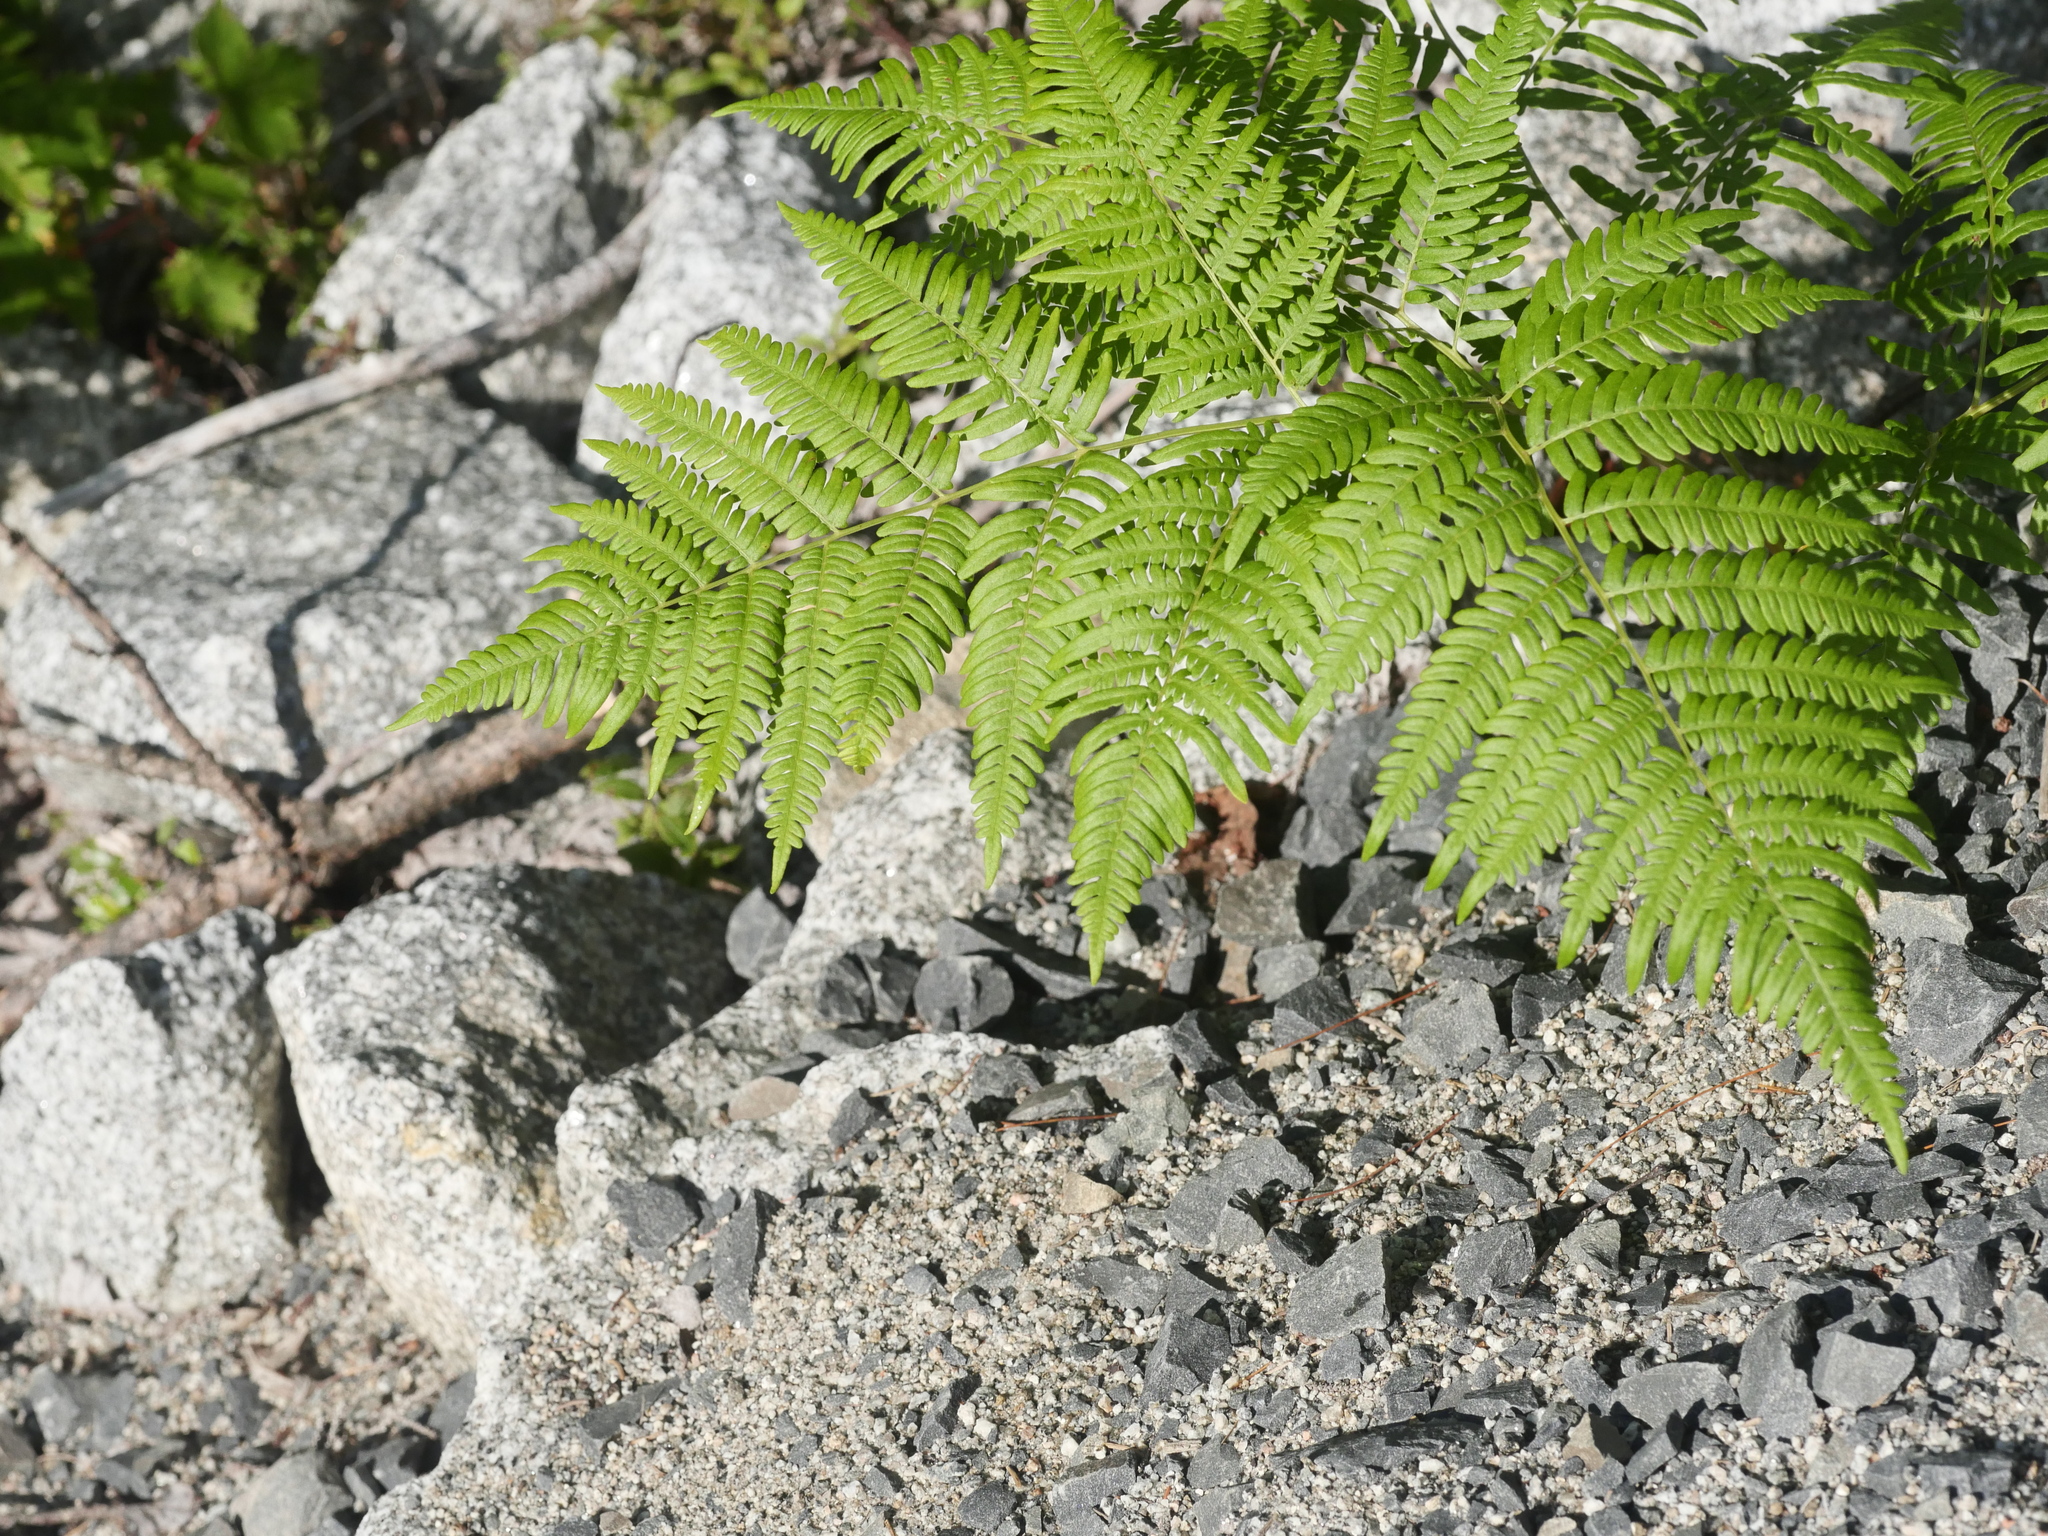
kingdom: Plantae
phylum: Tracheophyta
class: Polypodiopsida
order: Polypodiales
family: Dennstaedtiaceae
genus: Pteridium
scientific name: Pteridium aquilinum
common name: Bracken
